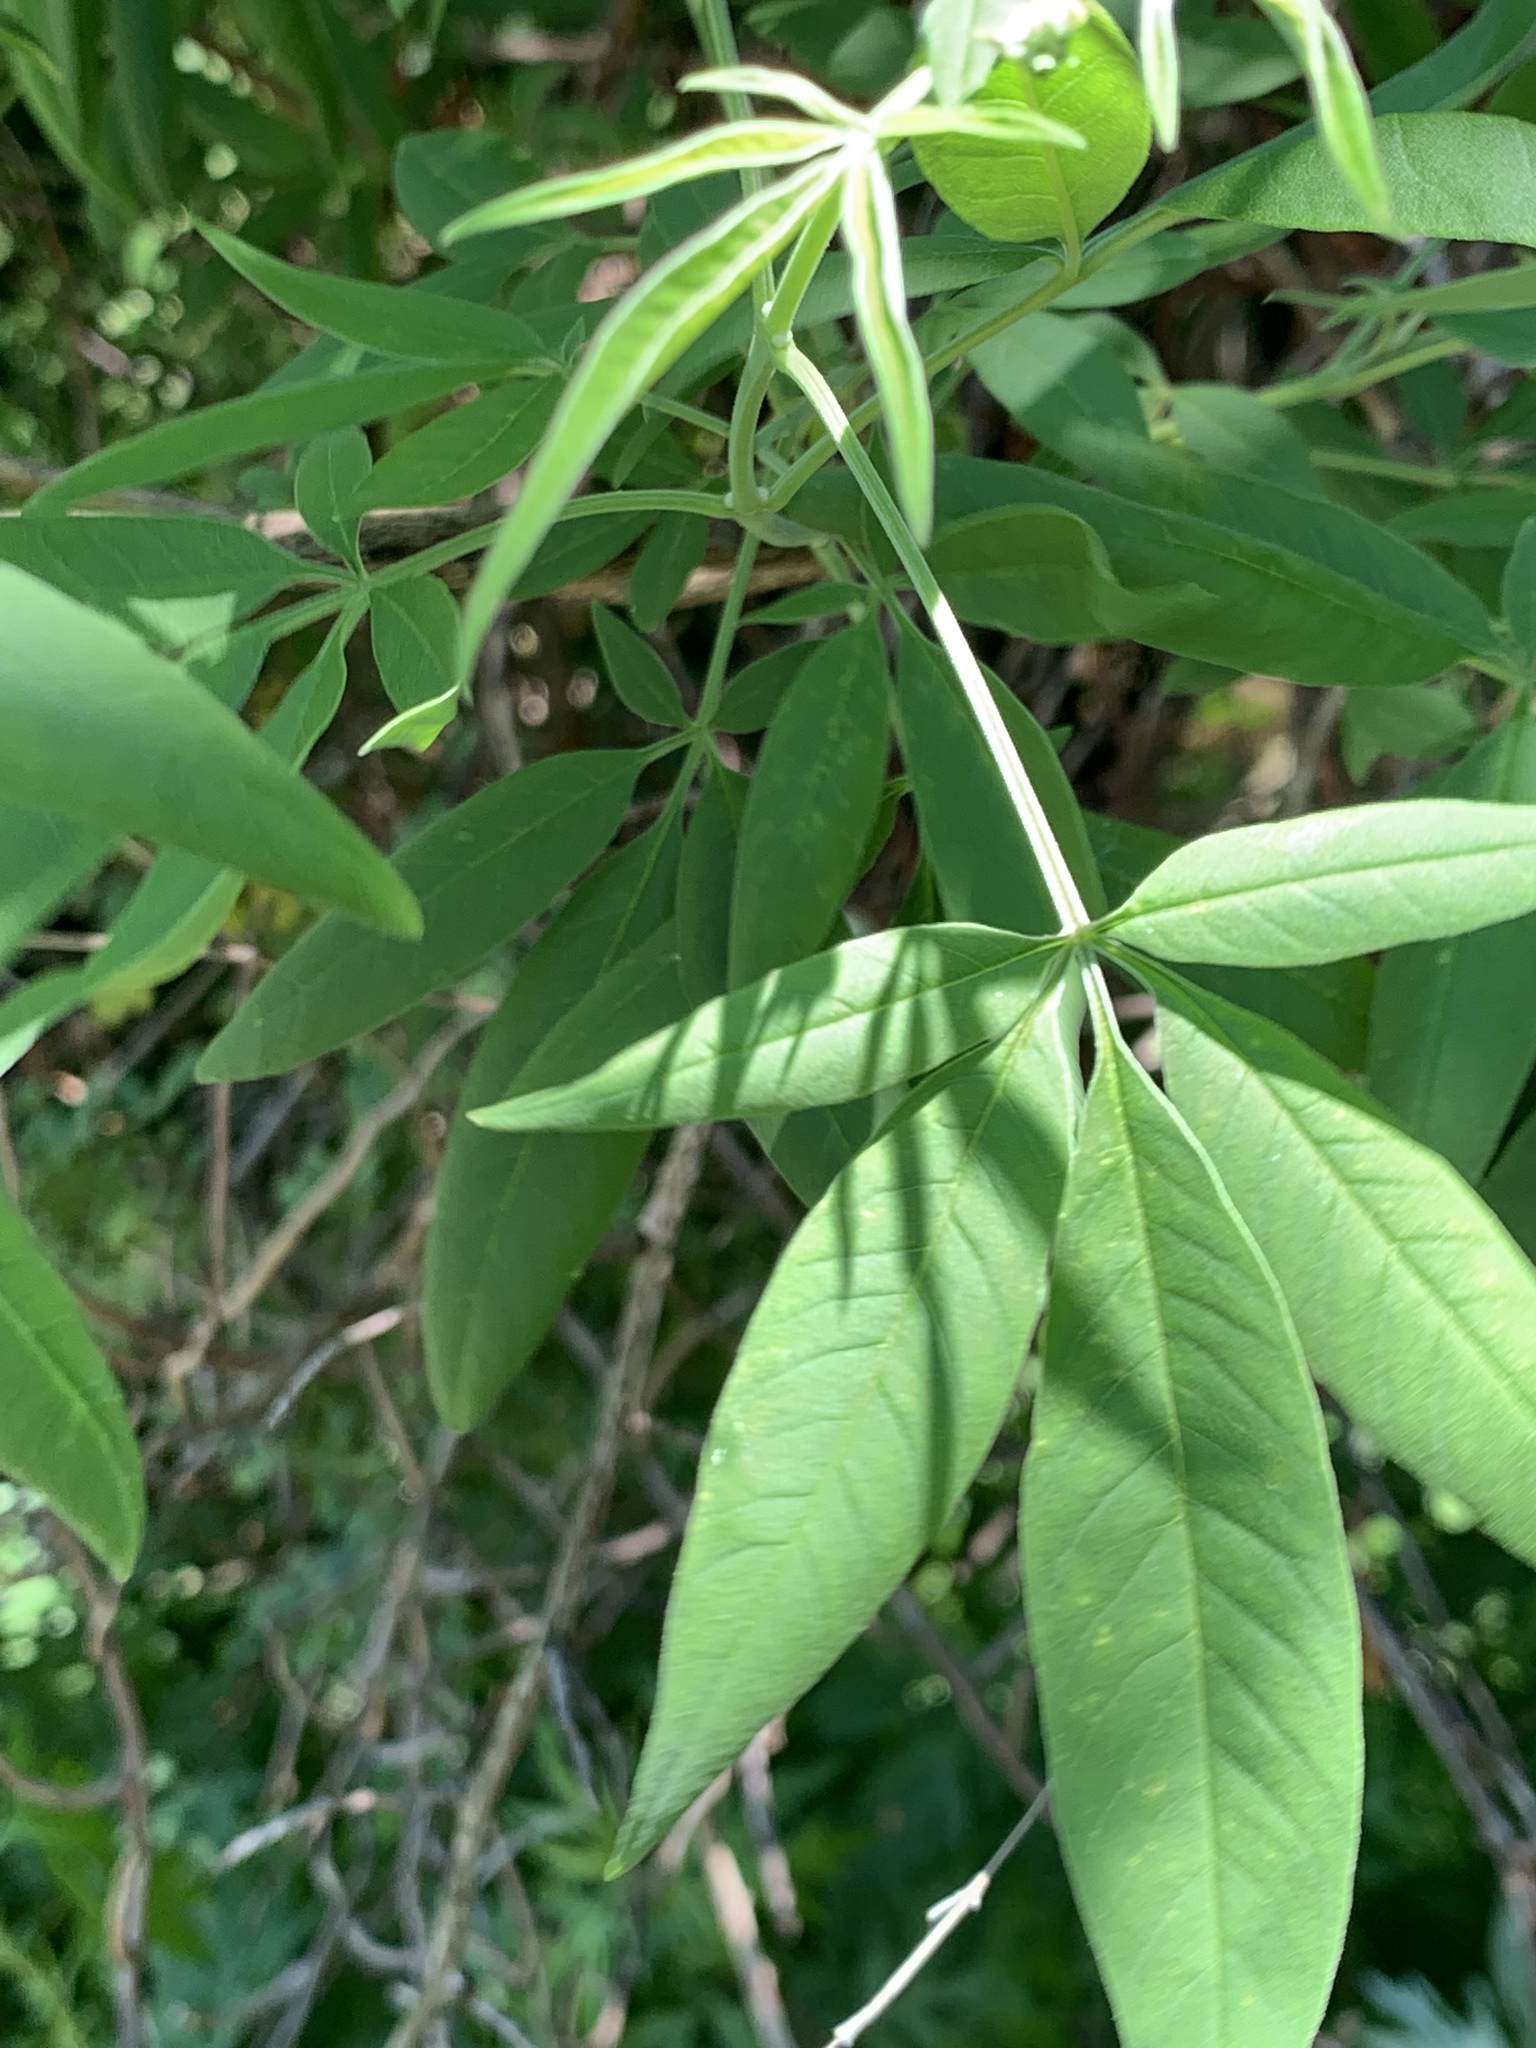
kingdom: Plantae
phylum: Tracheophyta
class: Magnoliopsida
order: Lamiales
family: Lamiaceae
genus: Vitex
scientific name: Vitex negundo
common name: Chinese chastetree
